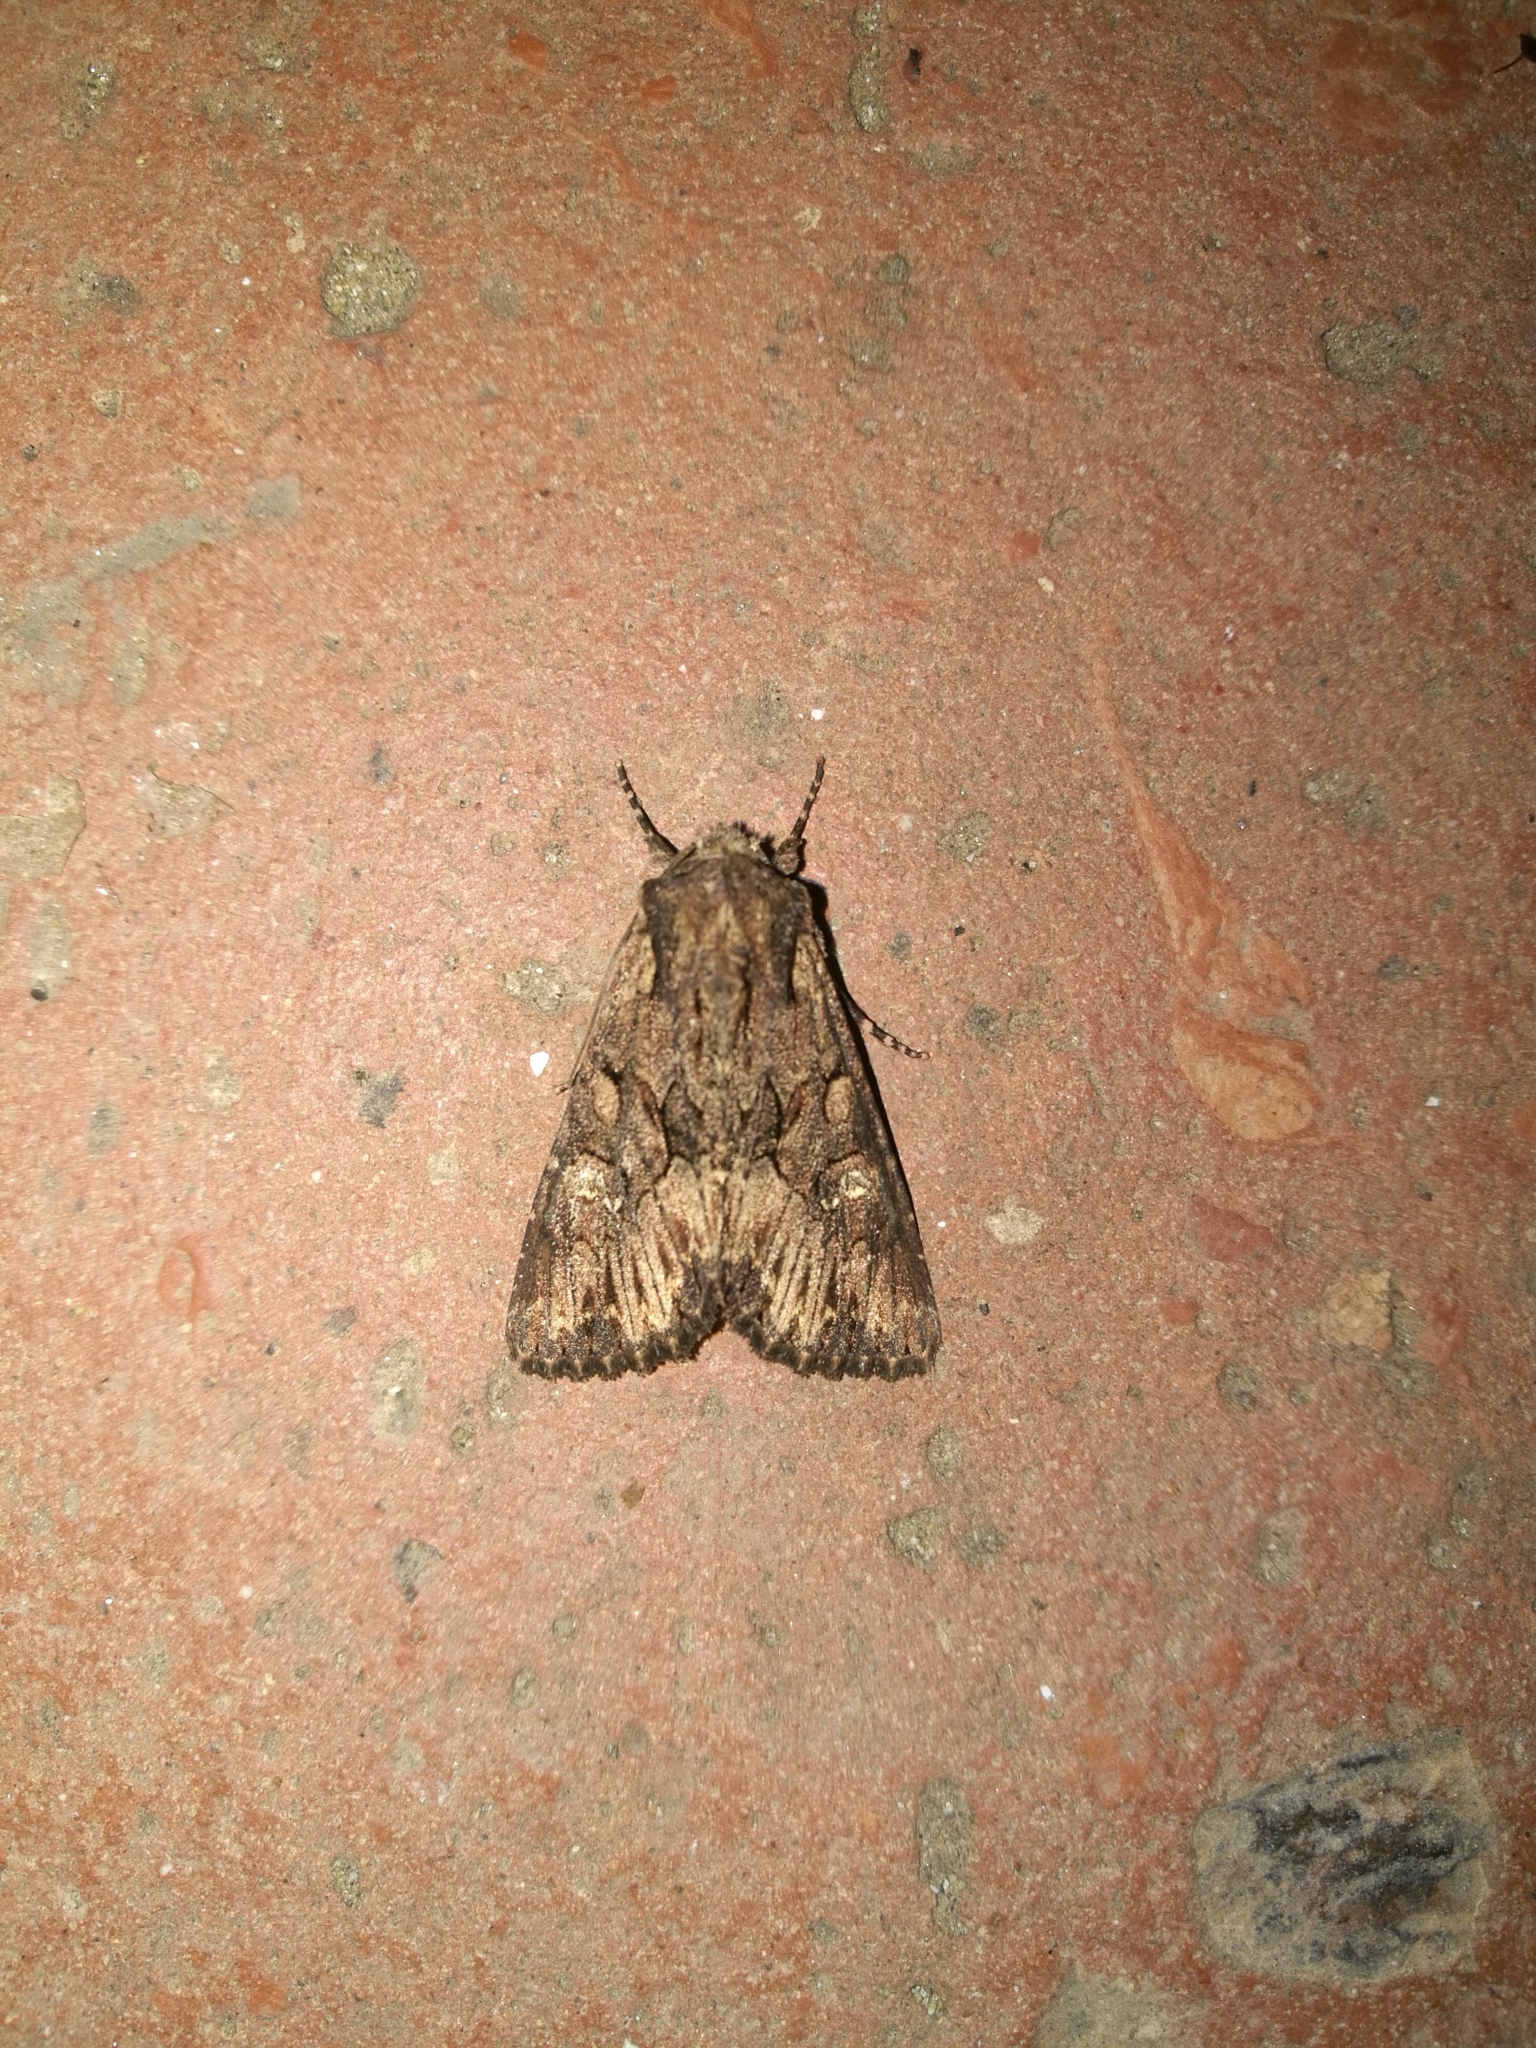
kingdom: Animalia
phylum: Arthropoda
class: Insecta
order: Lepidoptera
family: Noctuidae
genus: Mniotype
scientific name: Mniotype solieri
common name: Bedrule brocade
